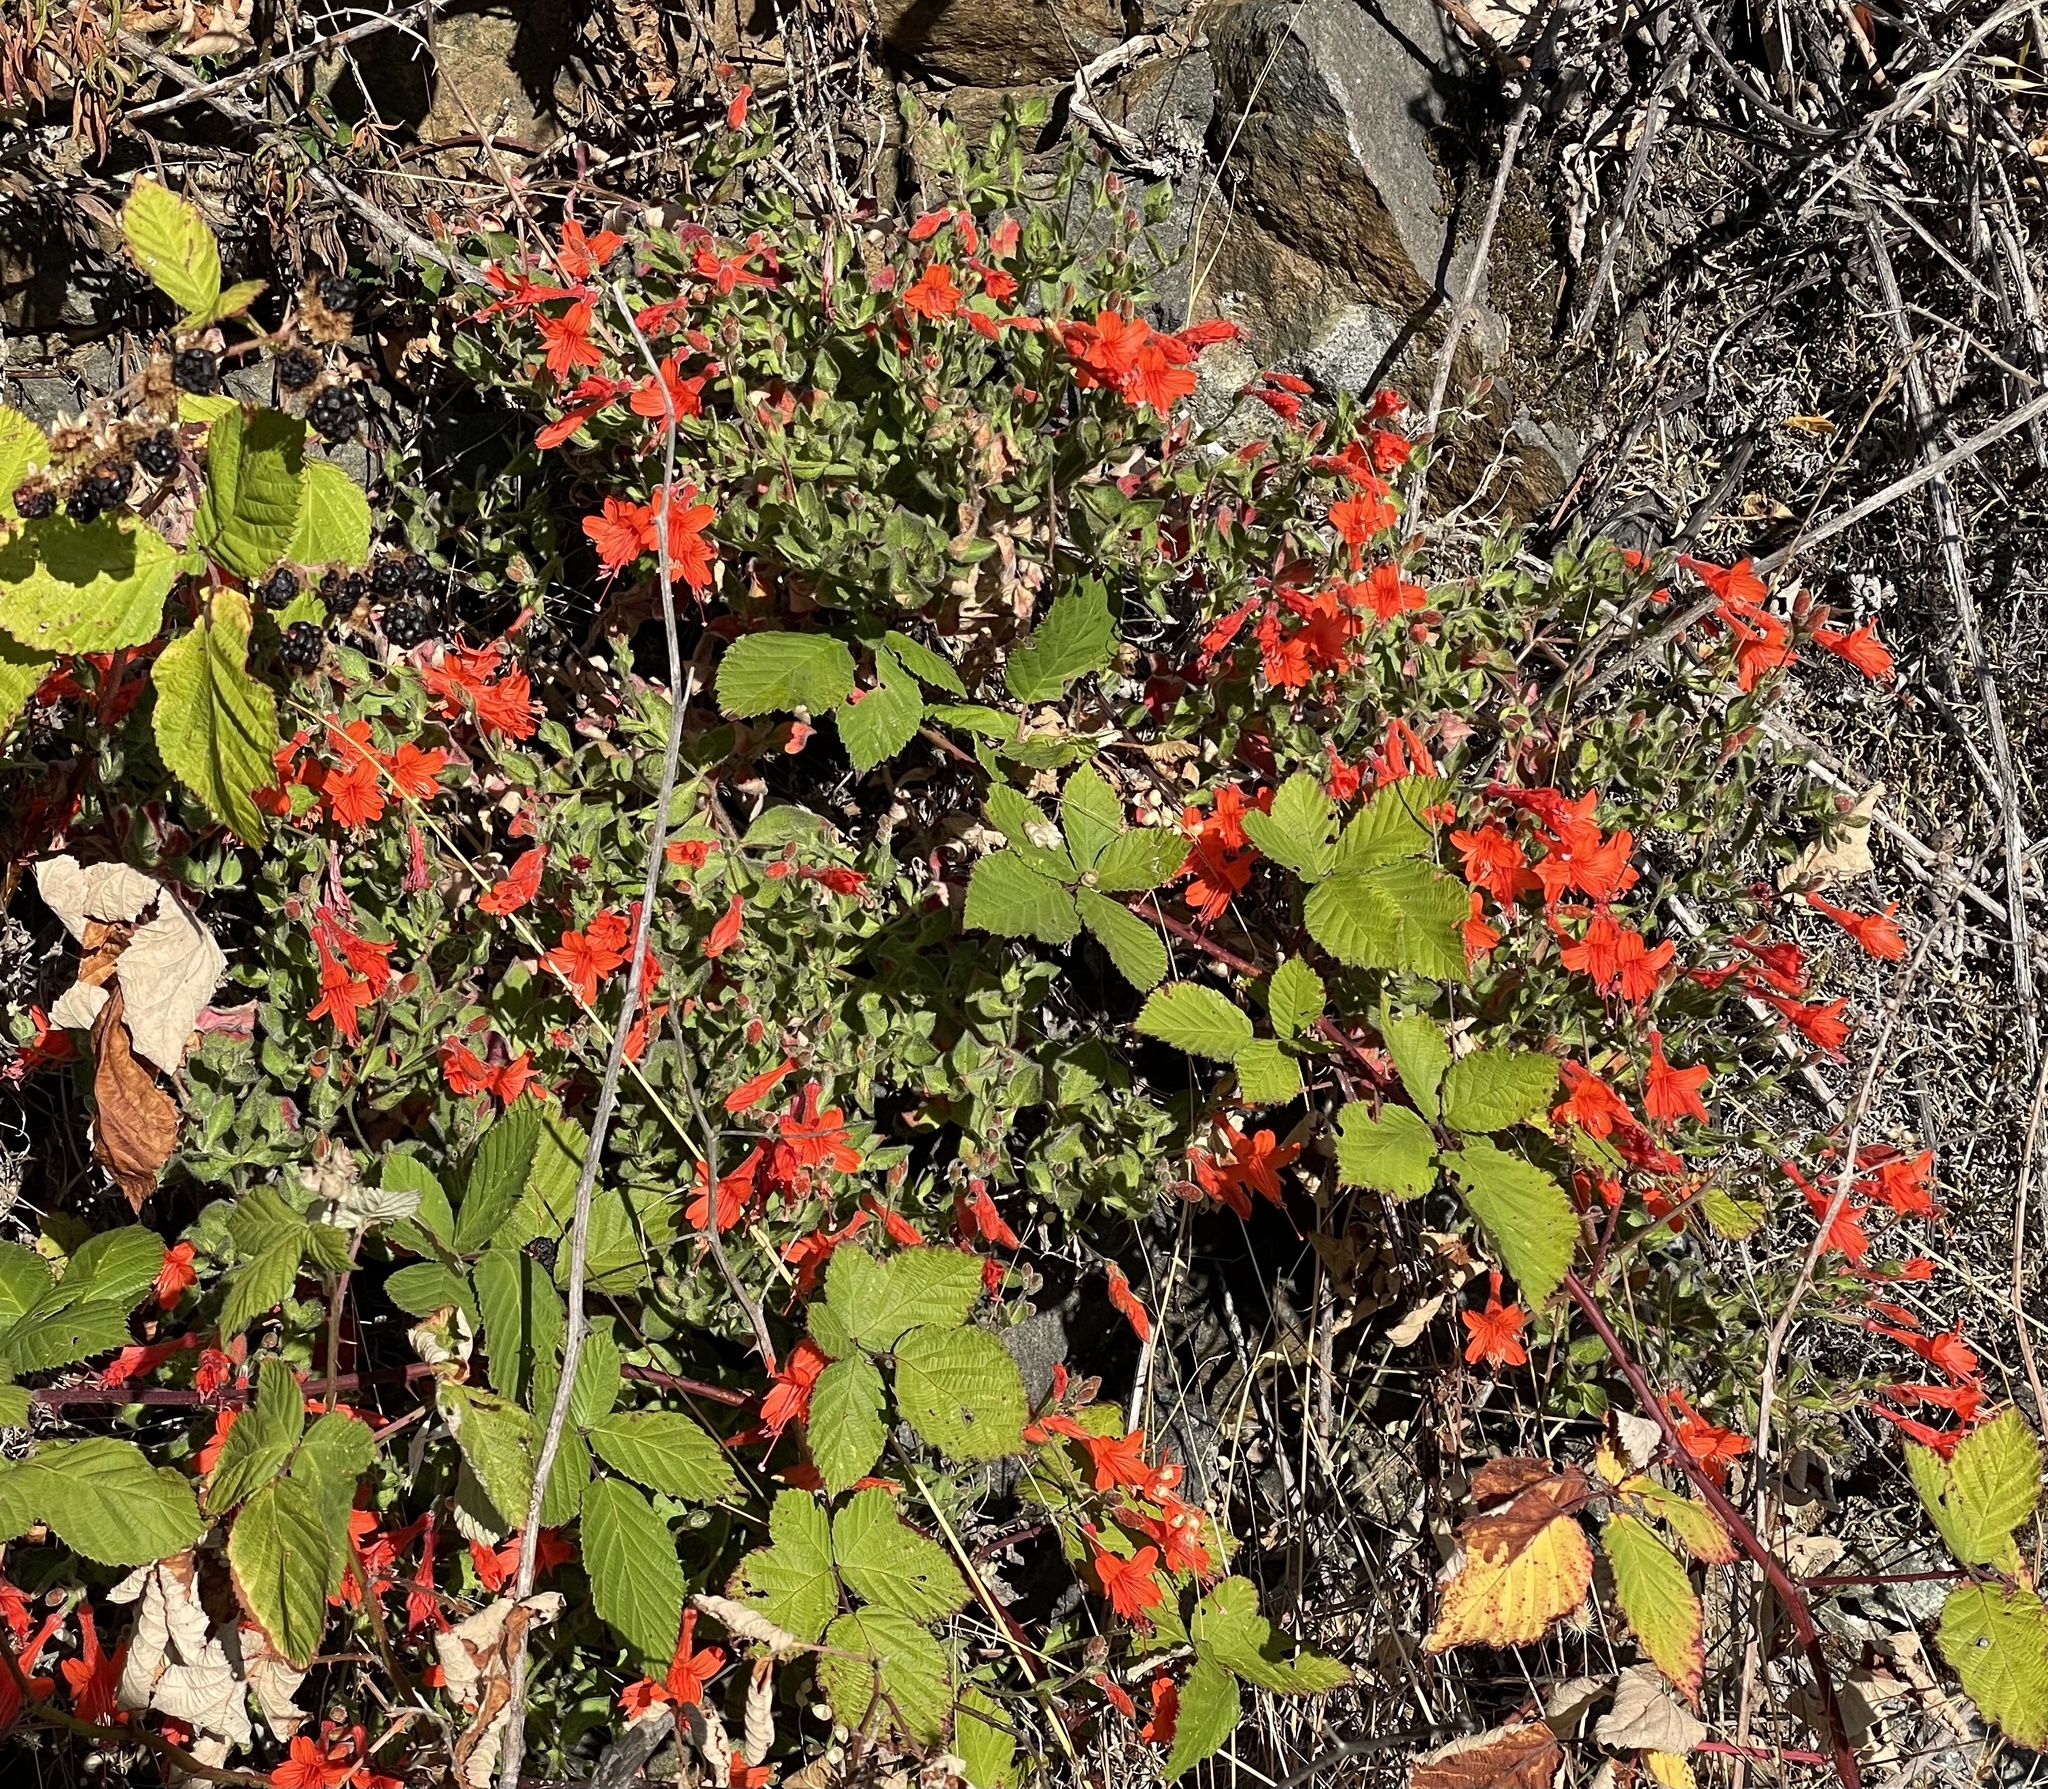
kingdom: Plantae
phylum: Tracheophyta
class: Magnoliopsida
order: Myrtales
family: Onagraceae
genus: Epilobium
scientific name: Epilobium canum
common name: California-fuchsia
